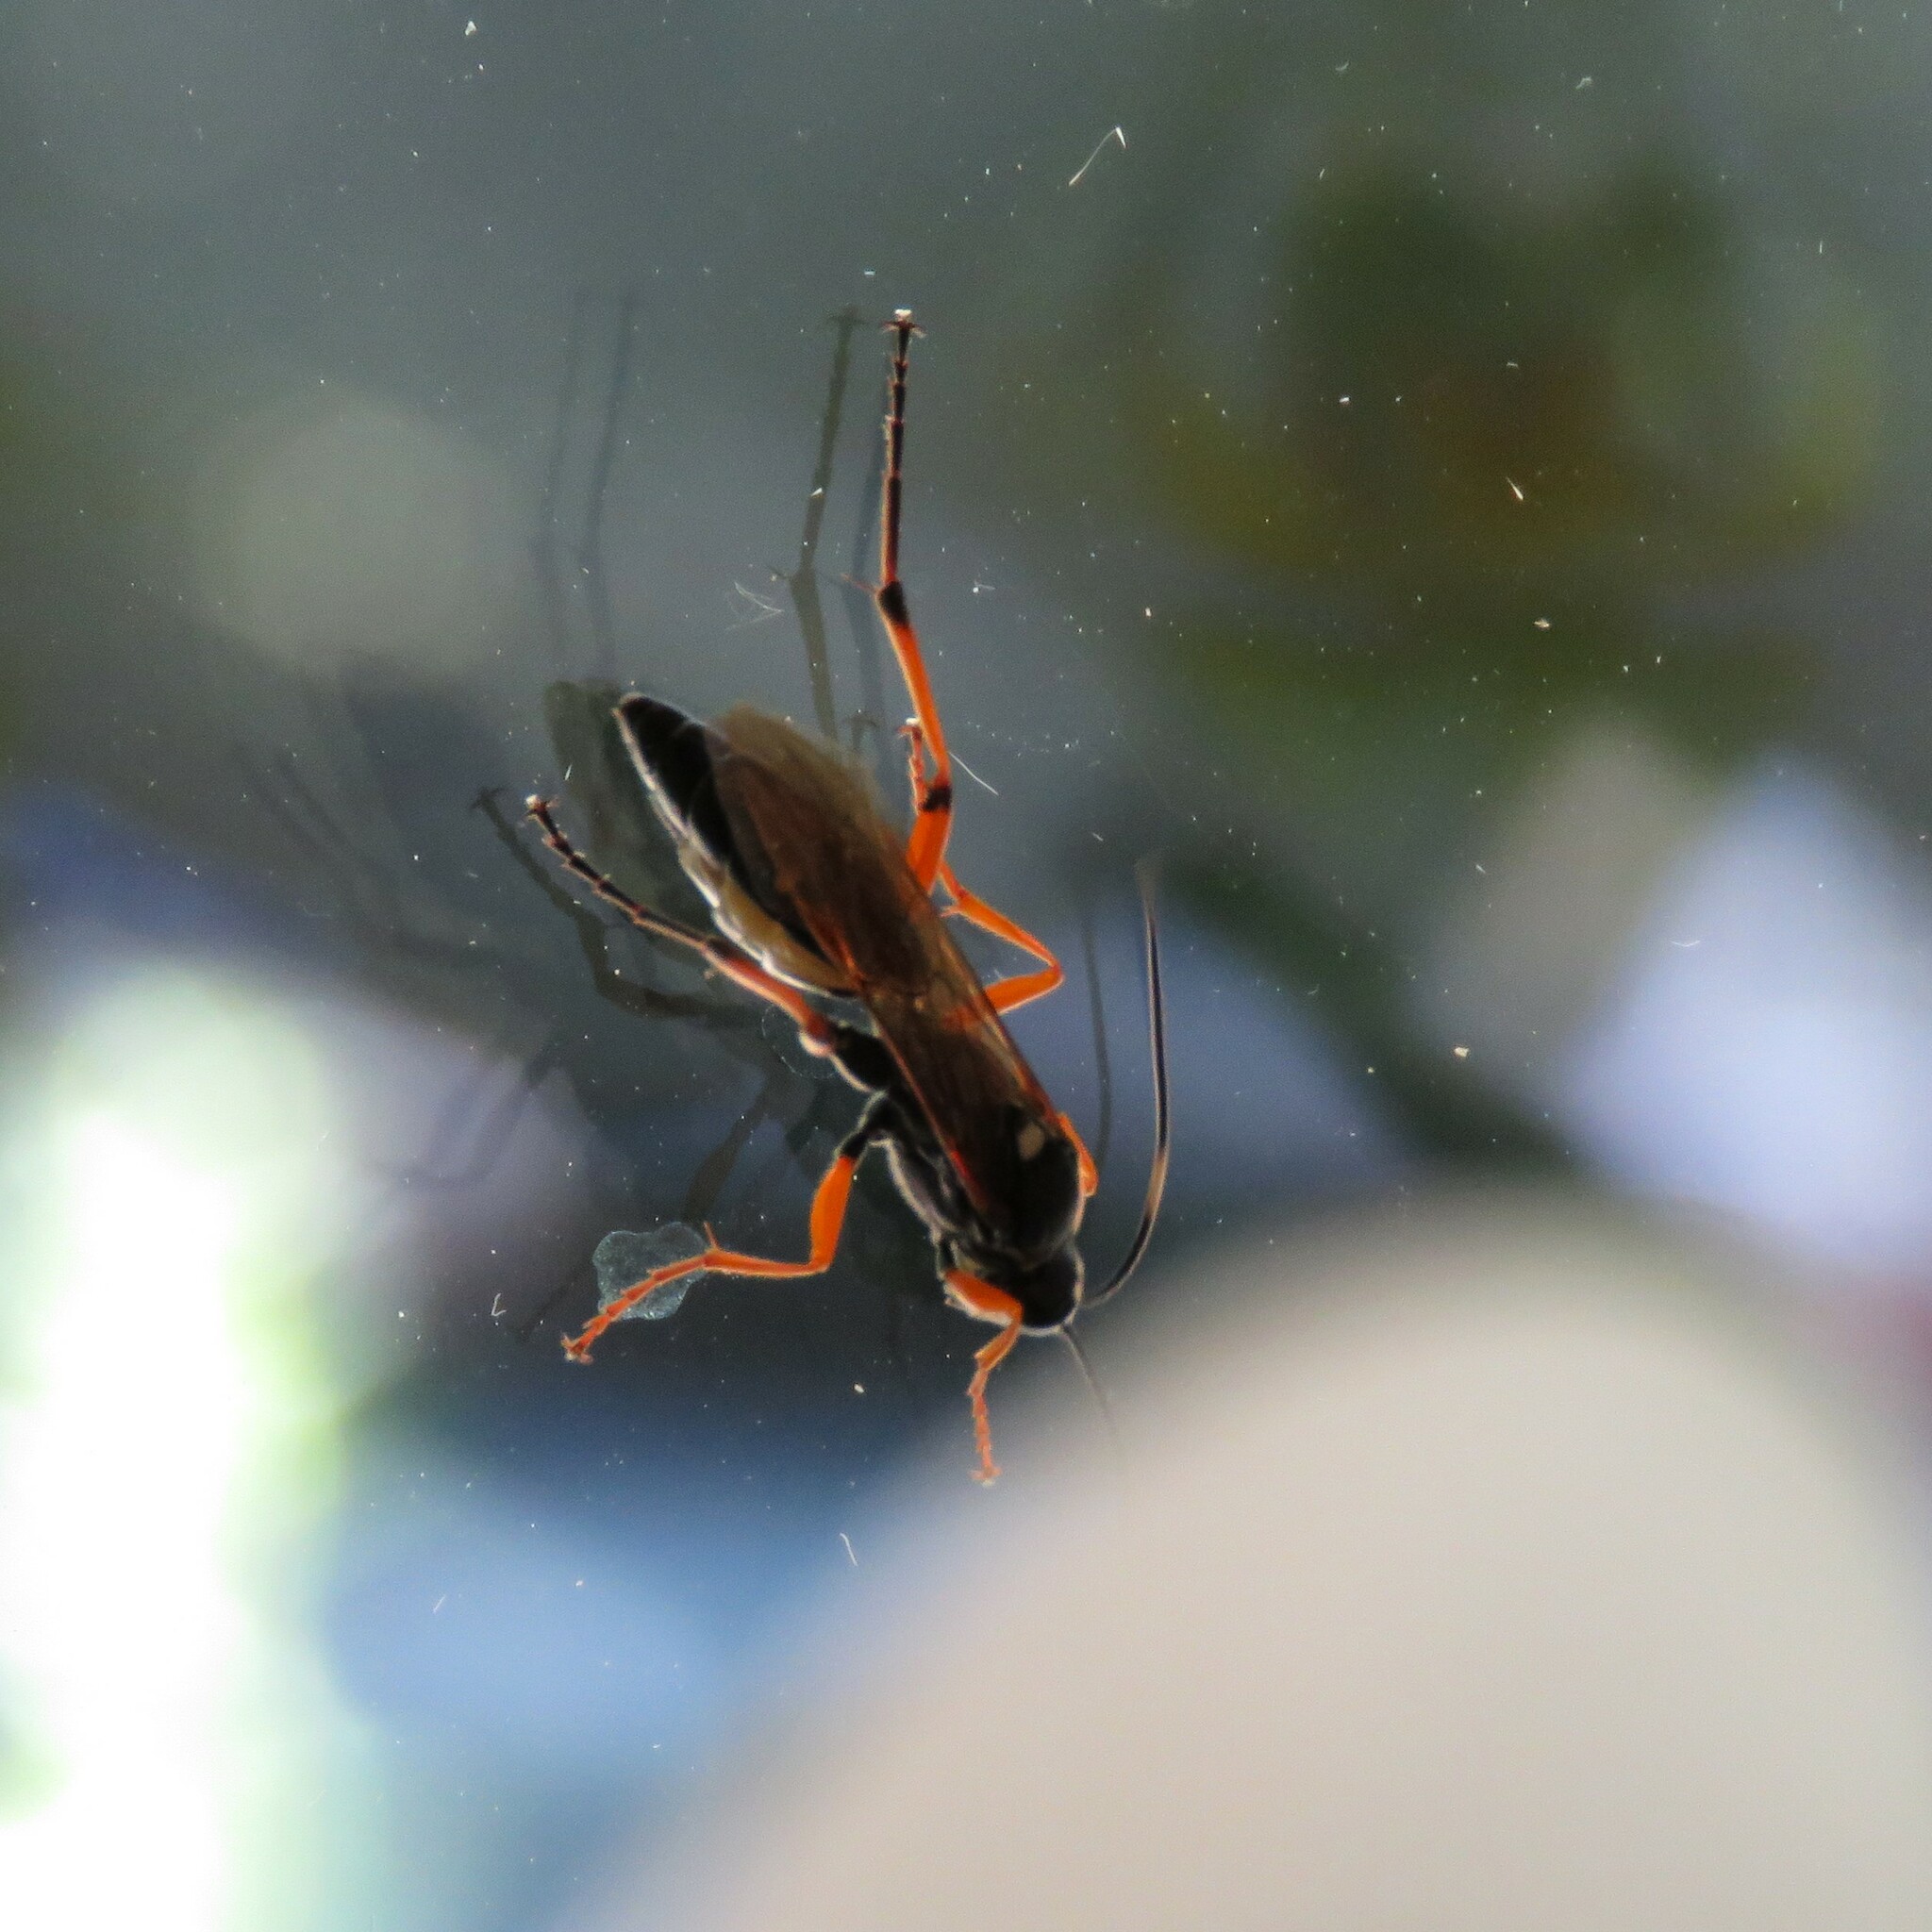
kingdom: Animalia
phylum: Arthropoda
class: Insecta
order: Hymenoptera
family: Ichneumonidae
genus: Diphyus
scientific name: Diphyus quadripunctorius
